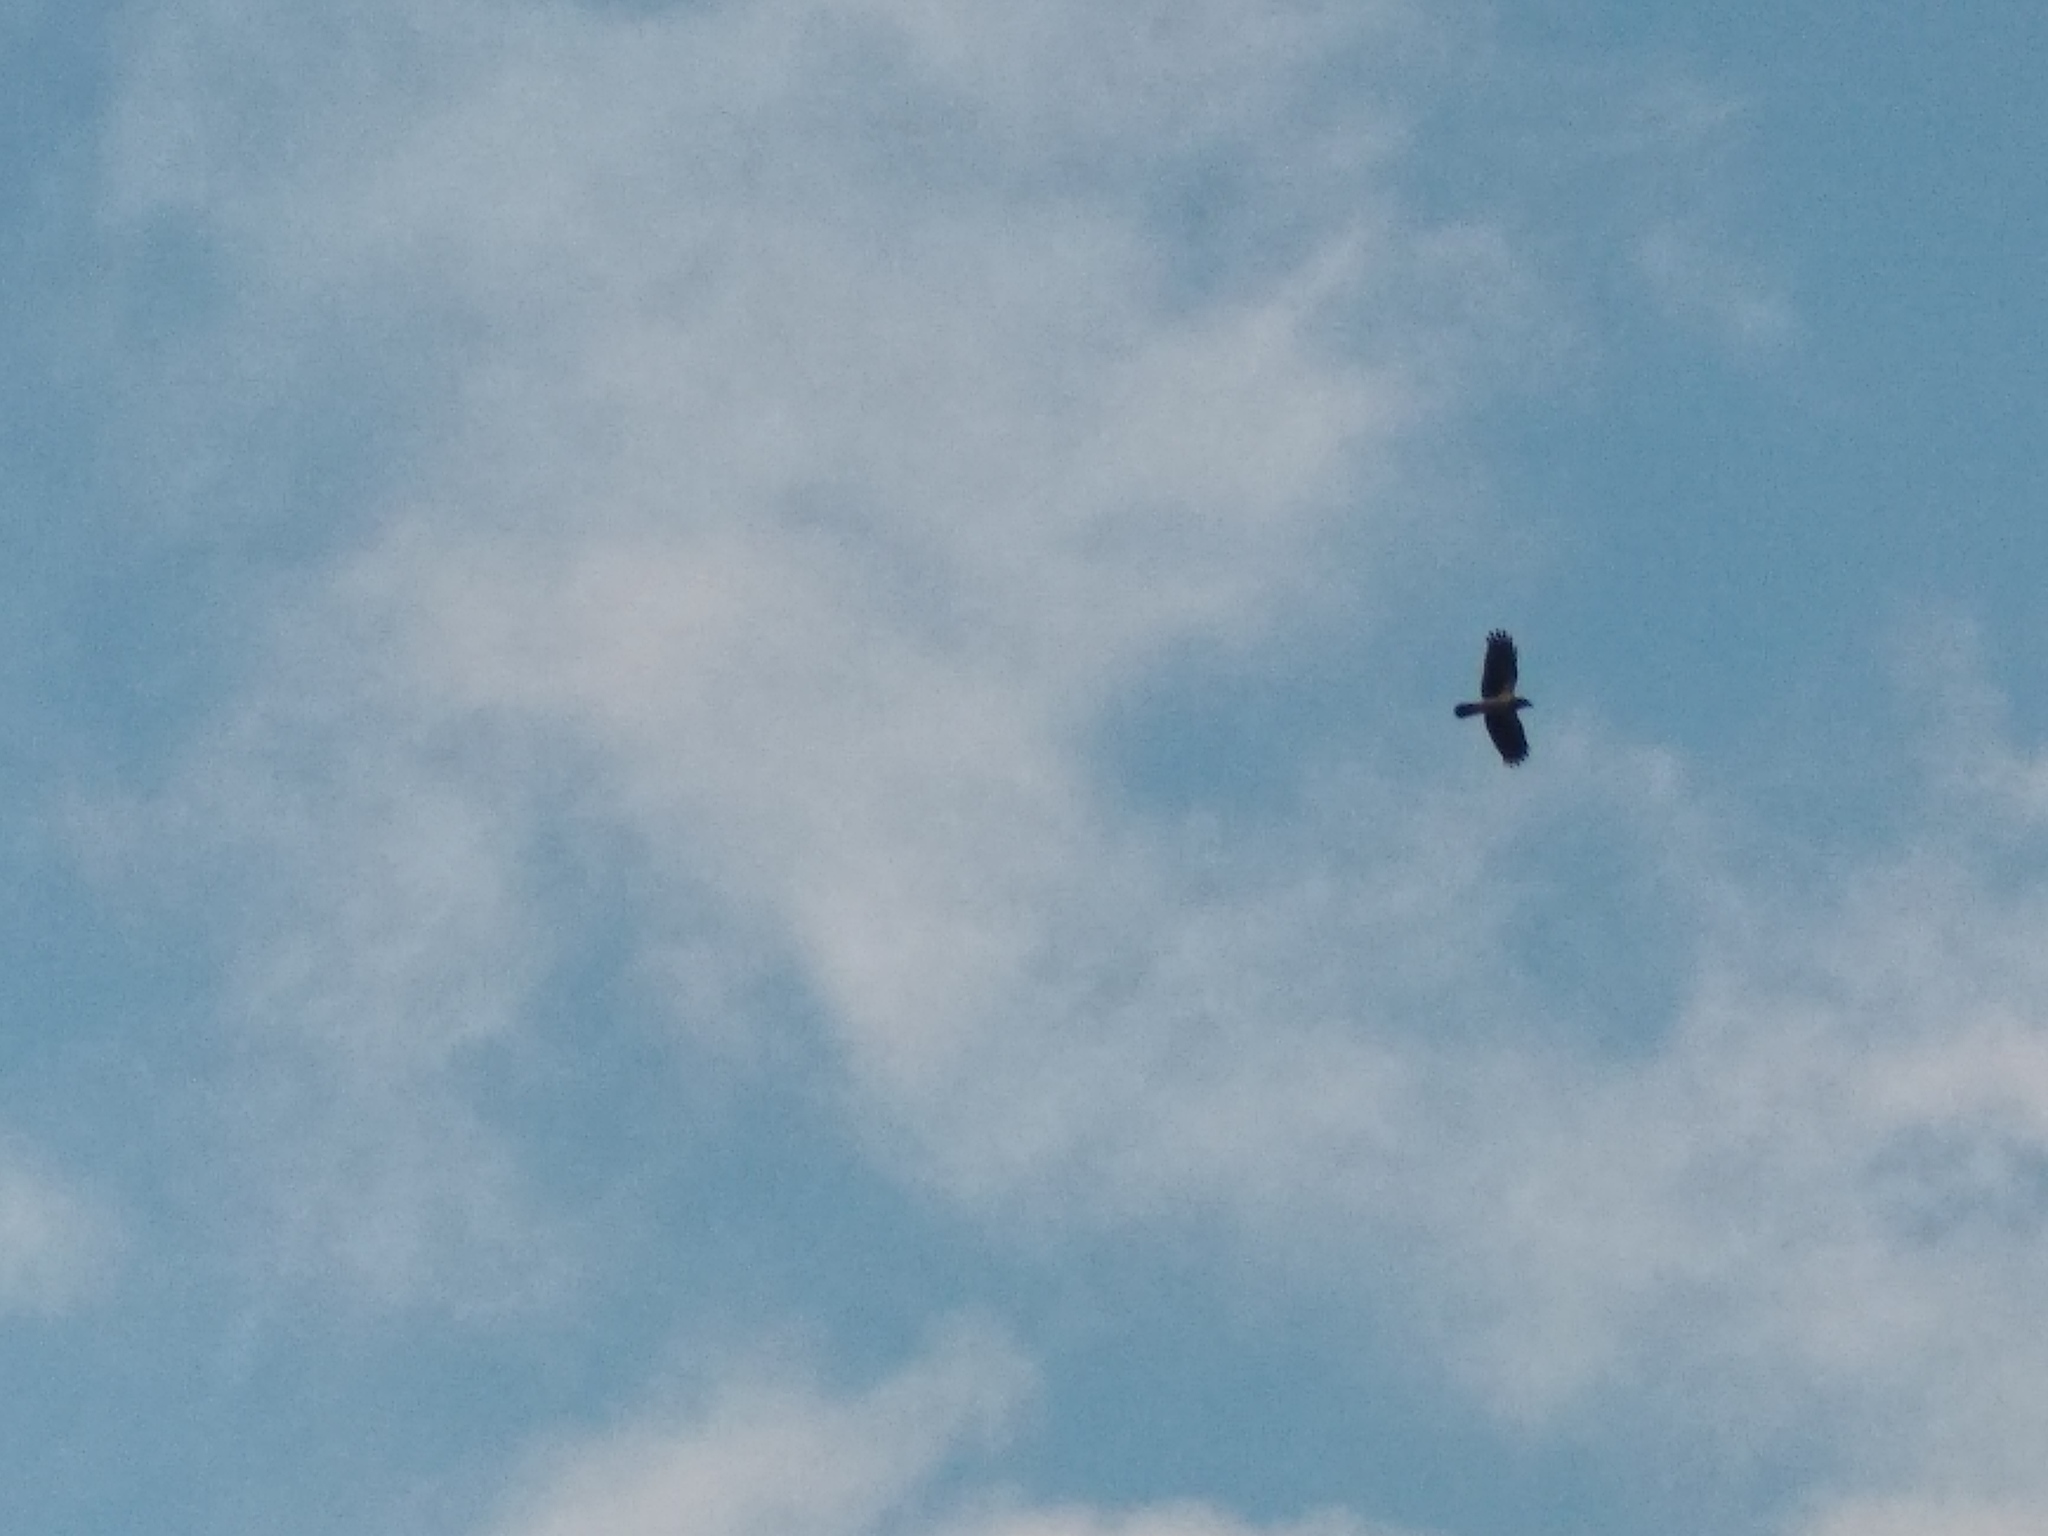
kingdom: Animalia
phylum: Chordata
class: Aves
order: Passeriformes
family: Corvidae
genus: Corvus
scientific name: Corvus cornix
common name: Hooded crow
